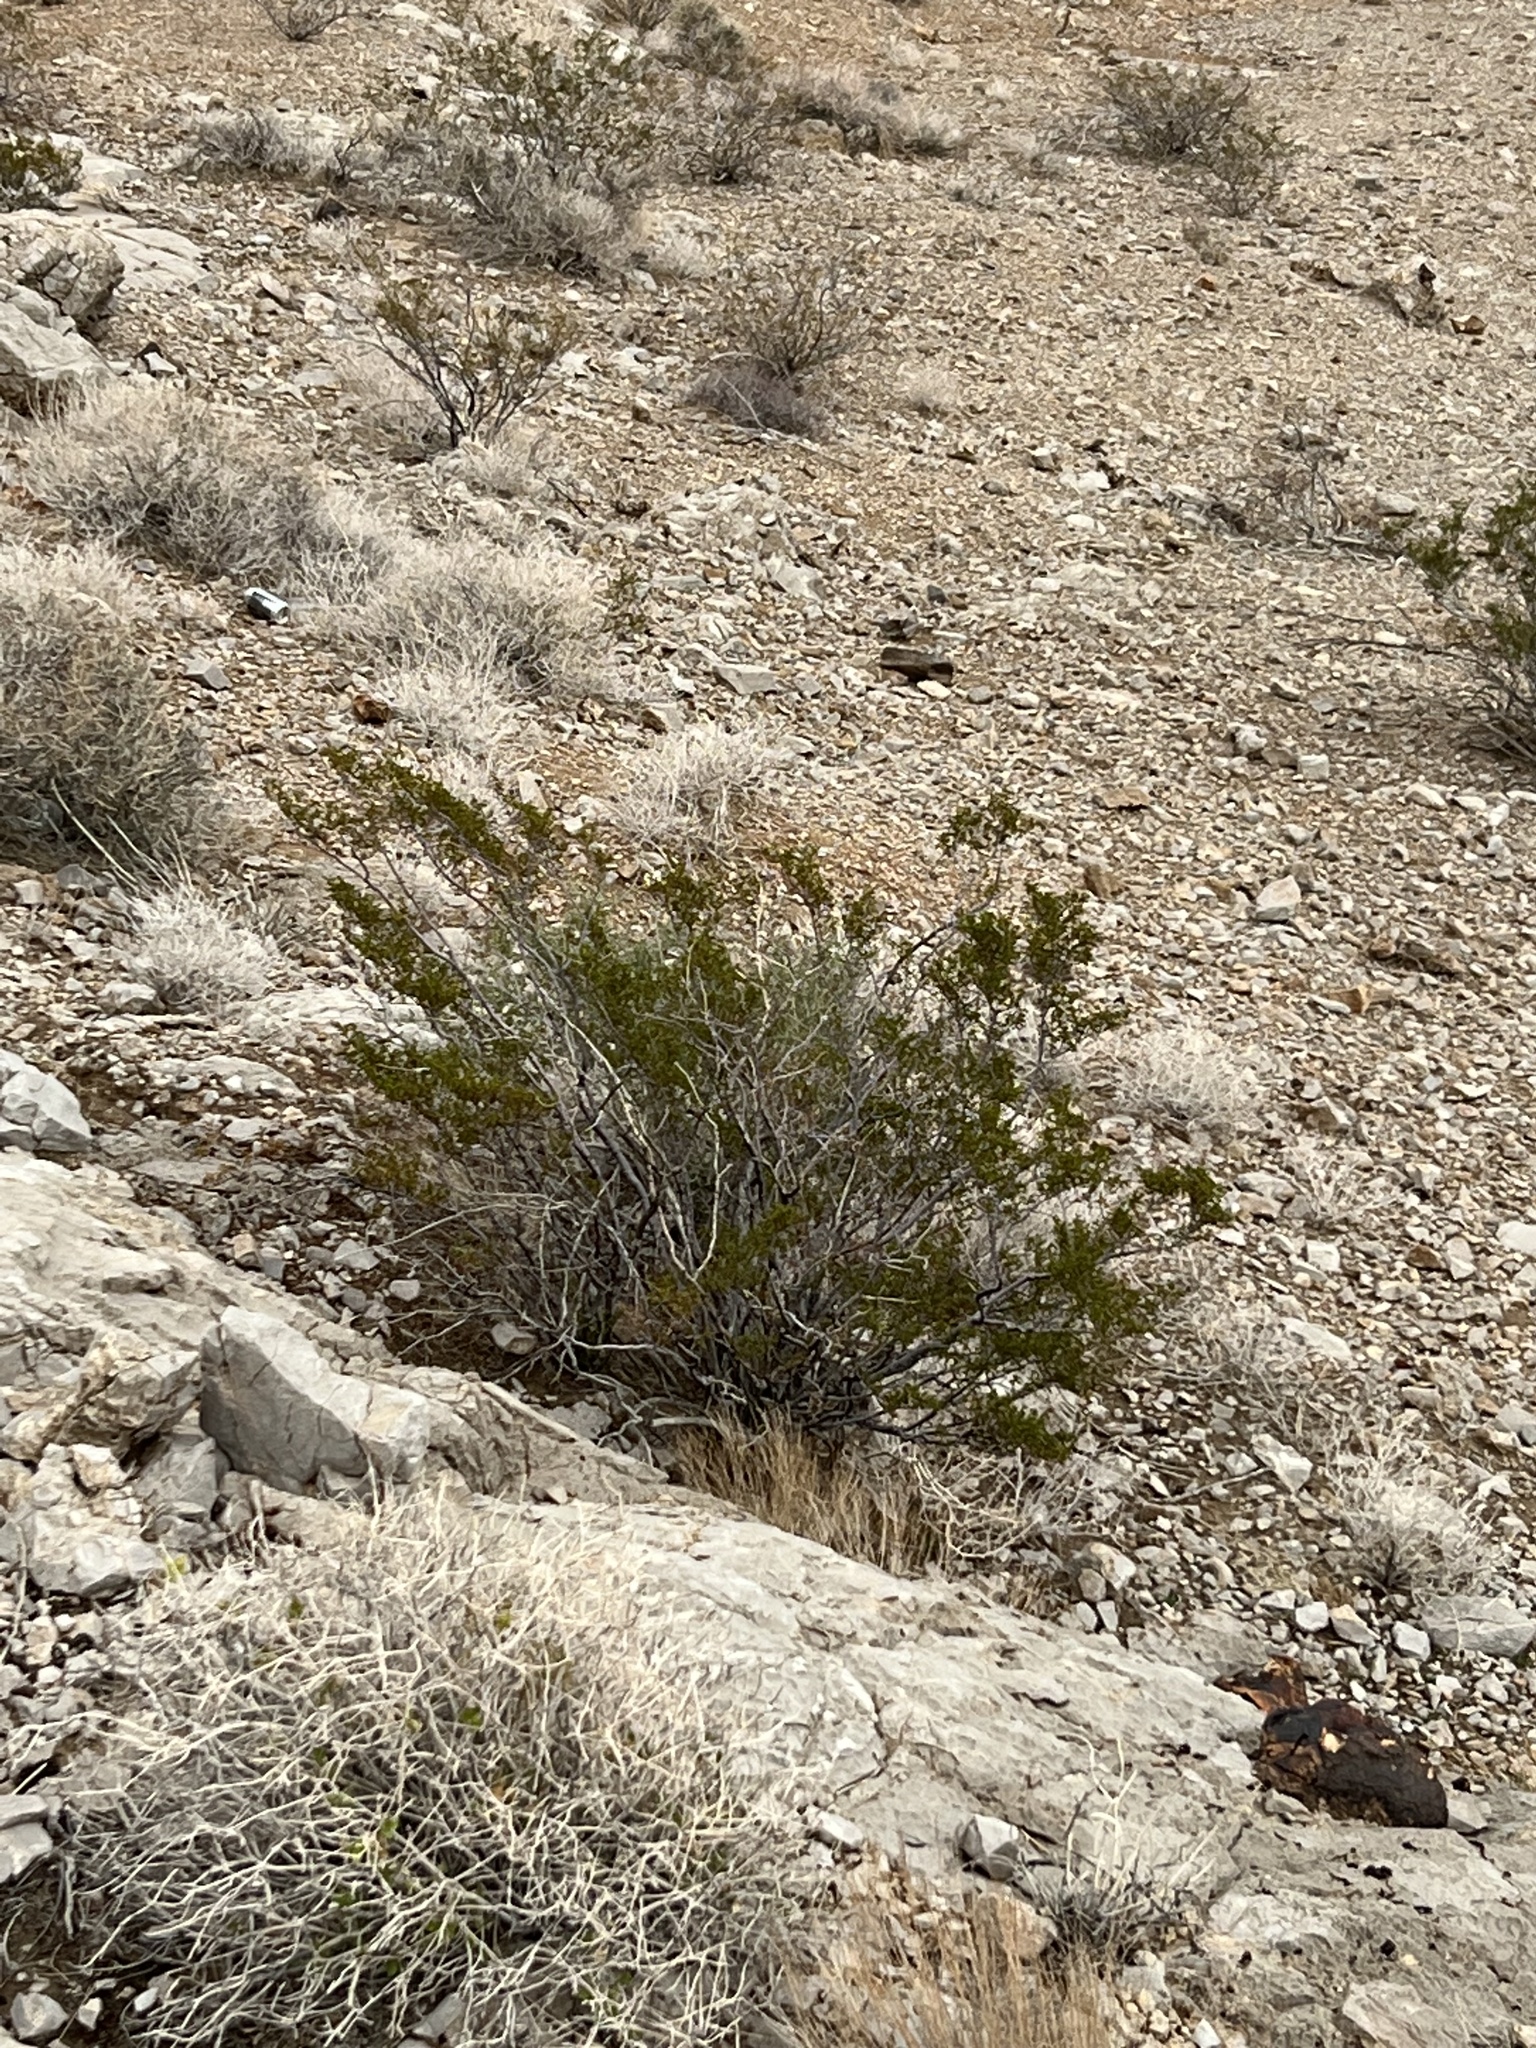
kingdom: Plantae
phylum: Tracheophyta
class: Magnoliopsida
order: Zygophyllales
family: Zygophyllaceae
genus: Larrea
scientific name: Larrea tridentata
